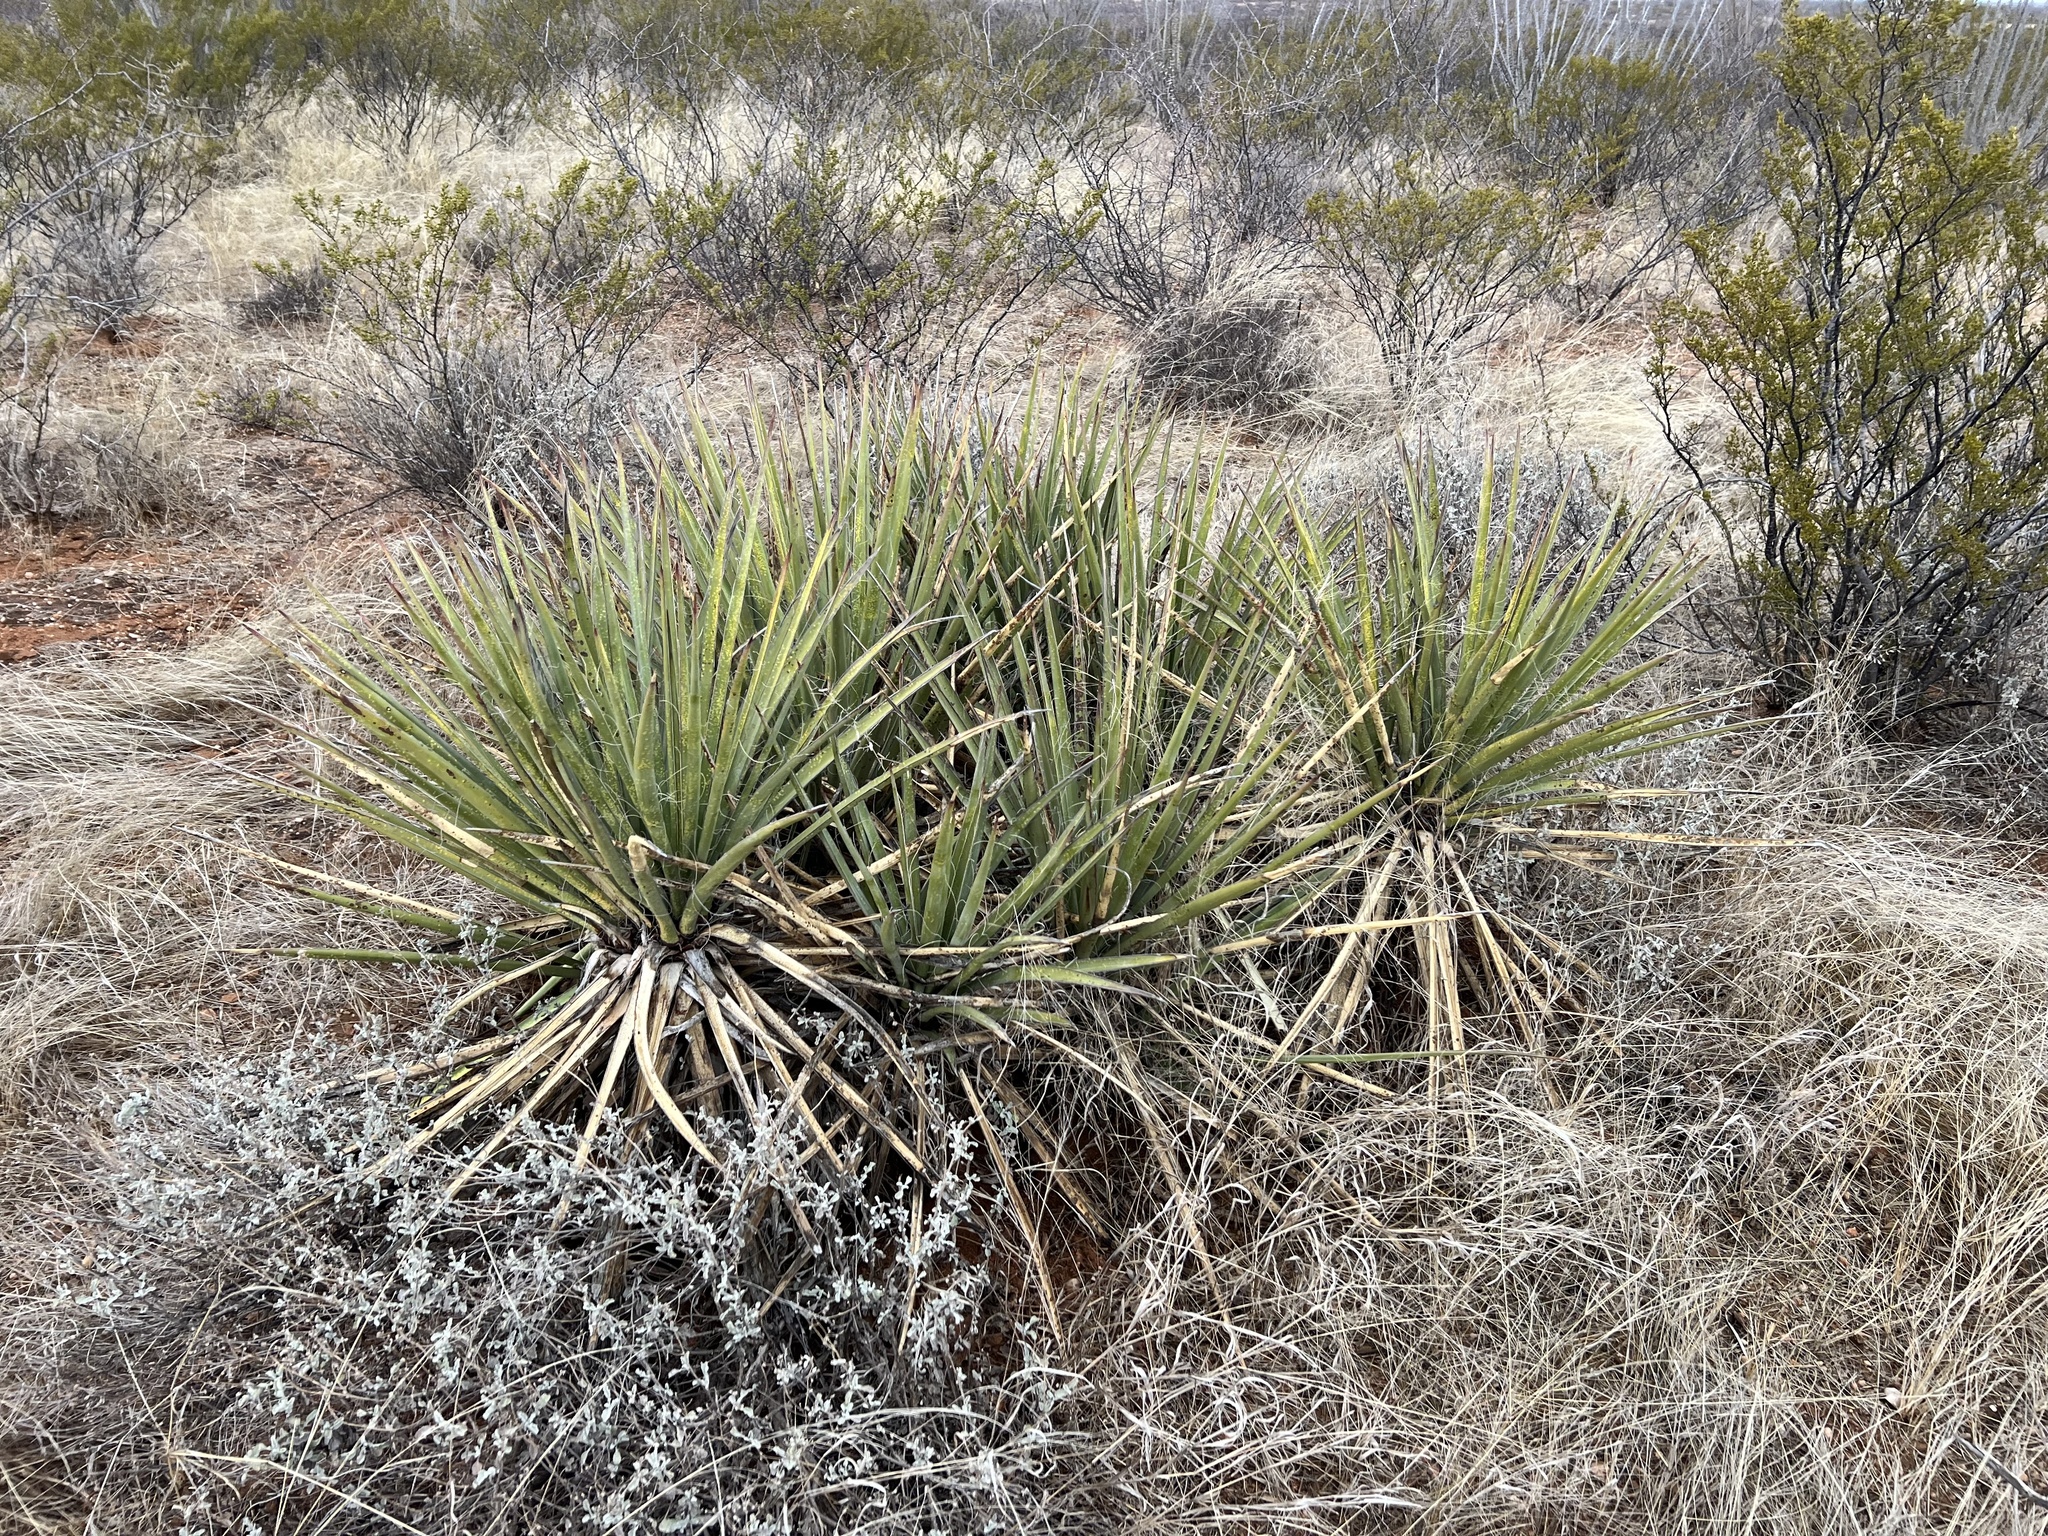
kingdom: Plantae
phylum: Tracheophyta
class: Liliopsida
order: Asparagales
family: Asparagaceae
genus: Yucca
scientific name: Yucca baccata
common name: Banana yucca
